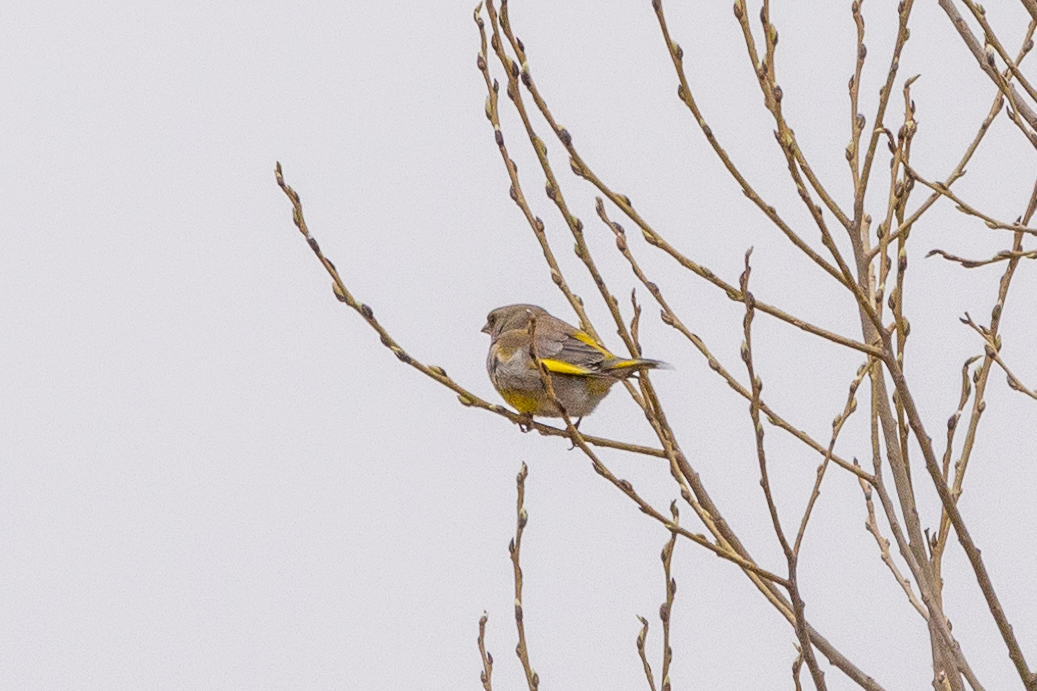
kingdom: Plantae
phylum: Tracheophyta
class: Liliopsida
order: Poales
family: Poaceae
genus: Chloris
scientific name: Chloris chloris
